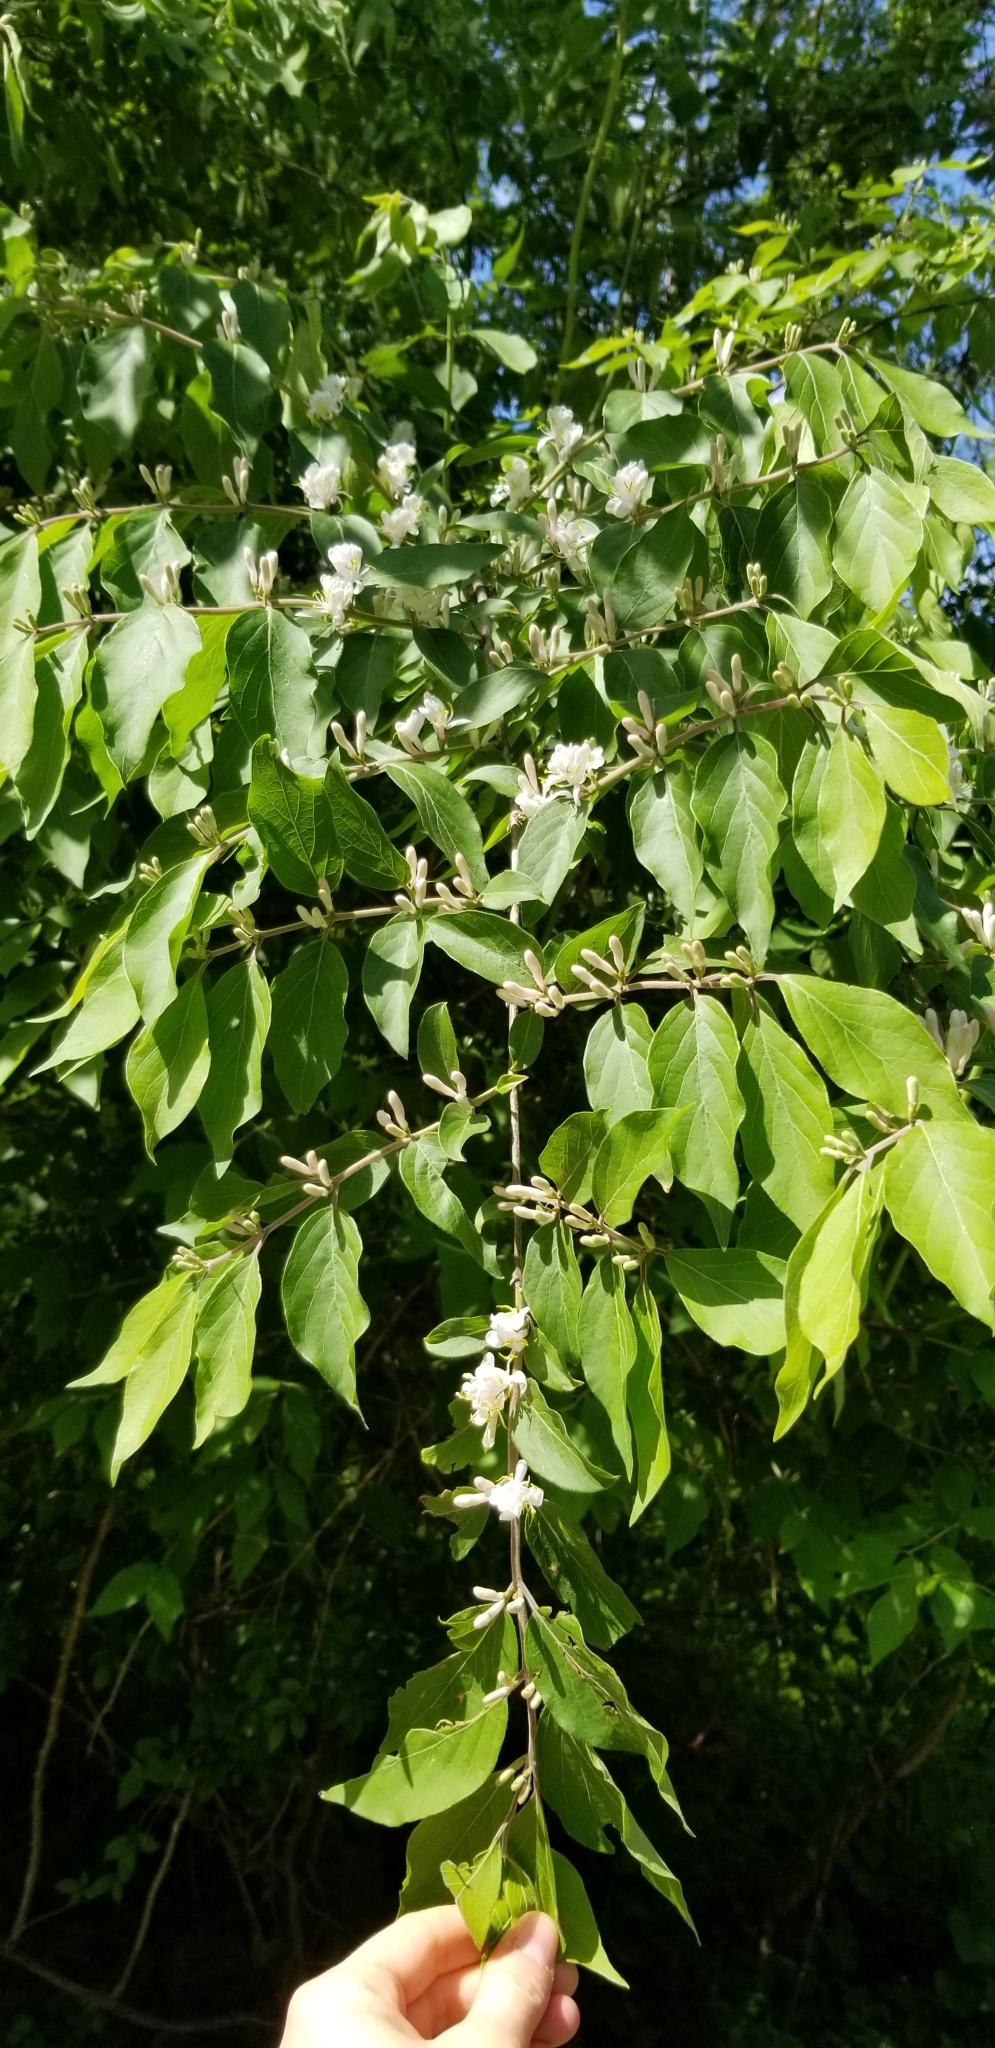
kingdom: Plantae
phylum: Tracheophyta
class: Magnoliopsida
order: Dipsacales
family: Caprifoliaceae
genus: Lonicera
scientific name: Lonicera maackii
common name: Amur honeysuckle
